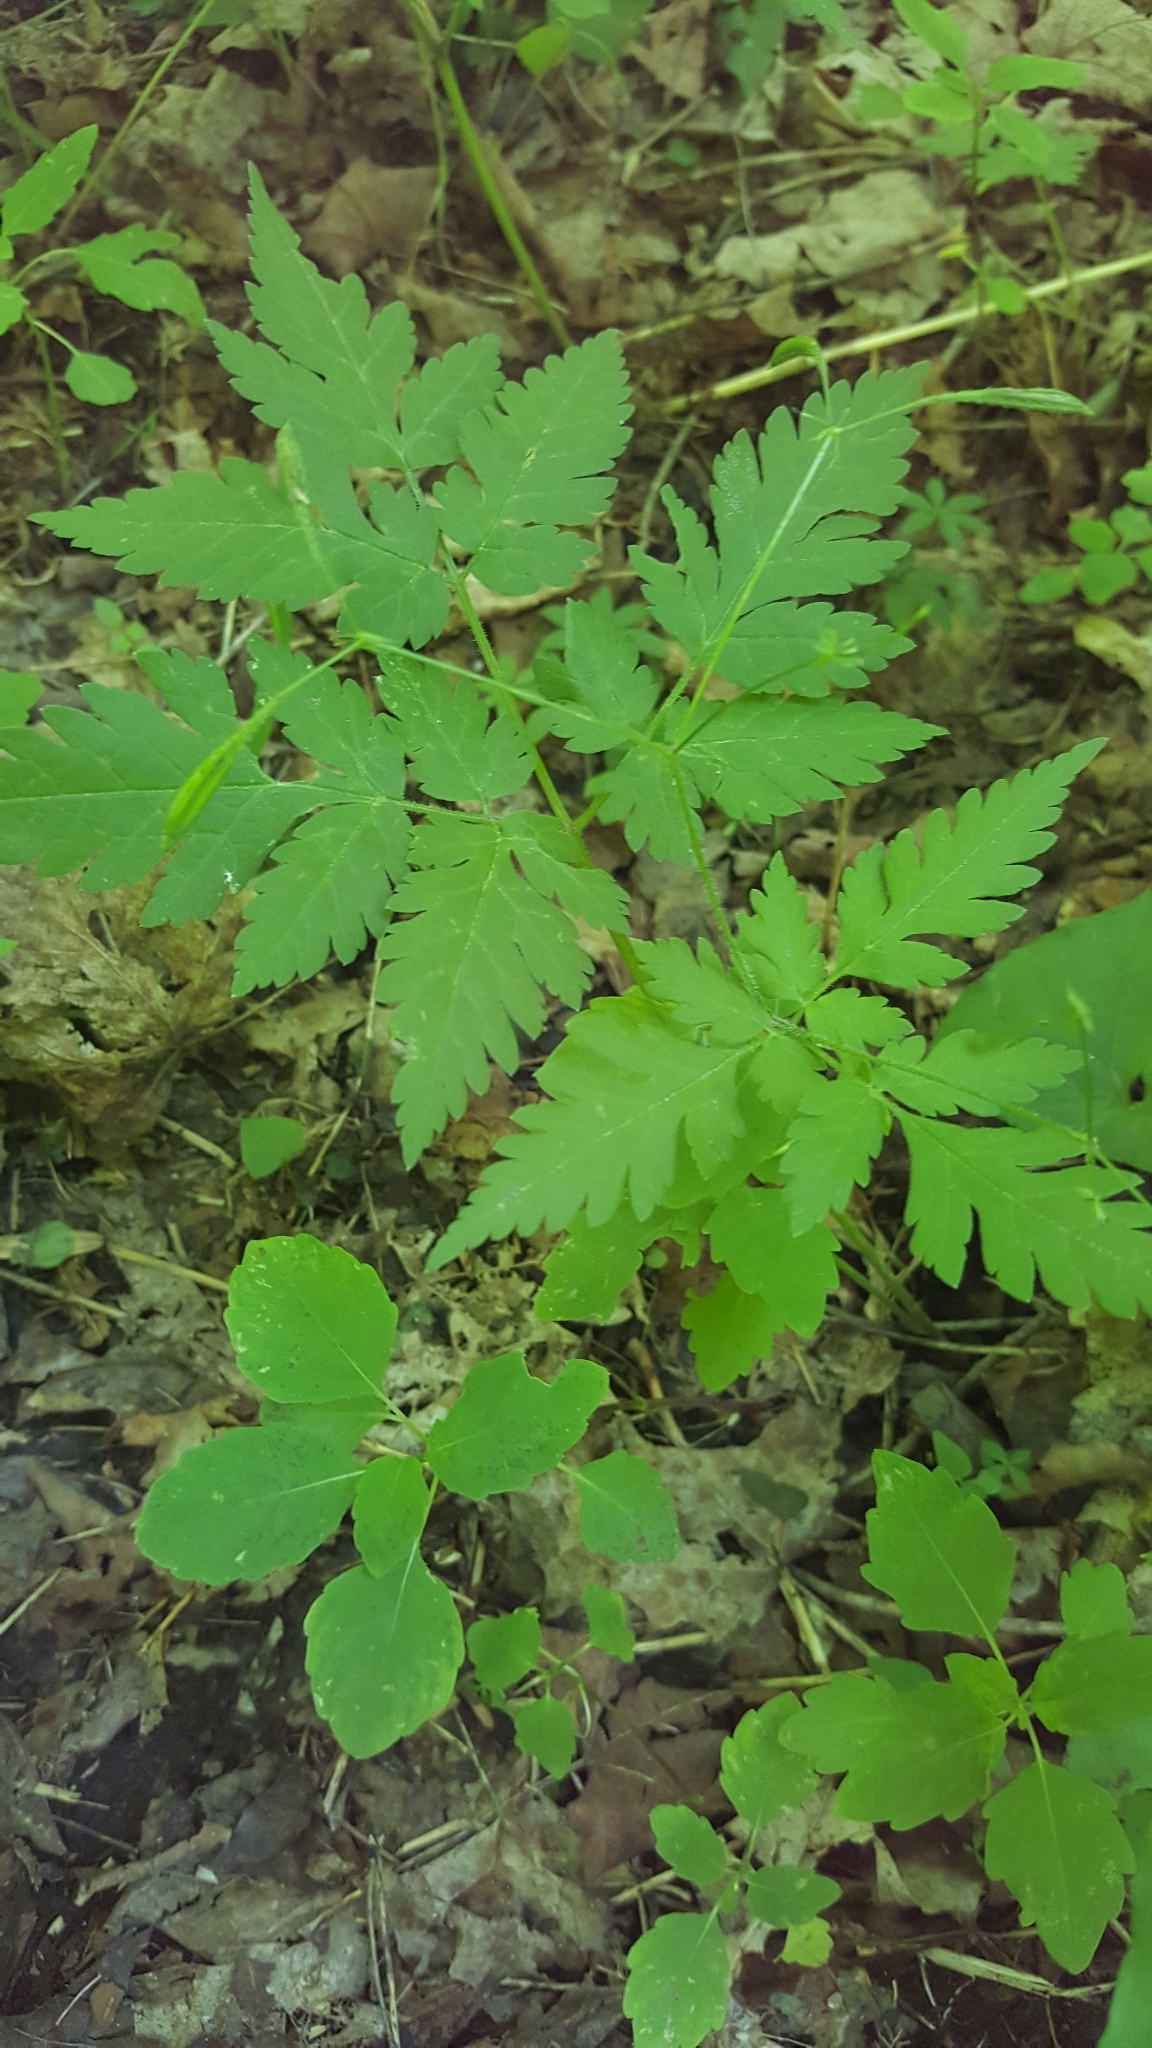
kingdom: Plantae
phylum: Tracheophyta
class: Magnoliopsida
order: Apiales
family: Apiaceae
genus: Osmorhiza
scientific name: Osmorhiza claytonii
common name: Hairy sweet cicely
